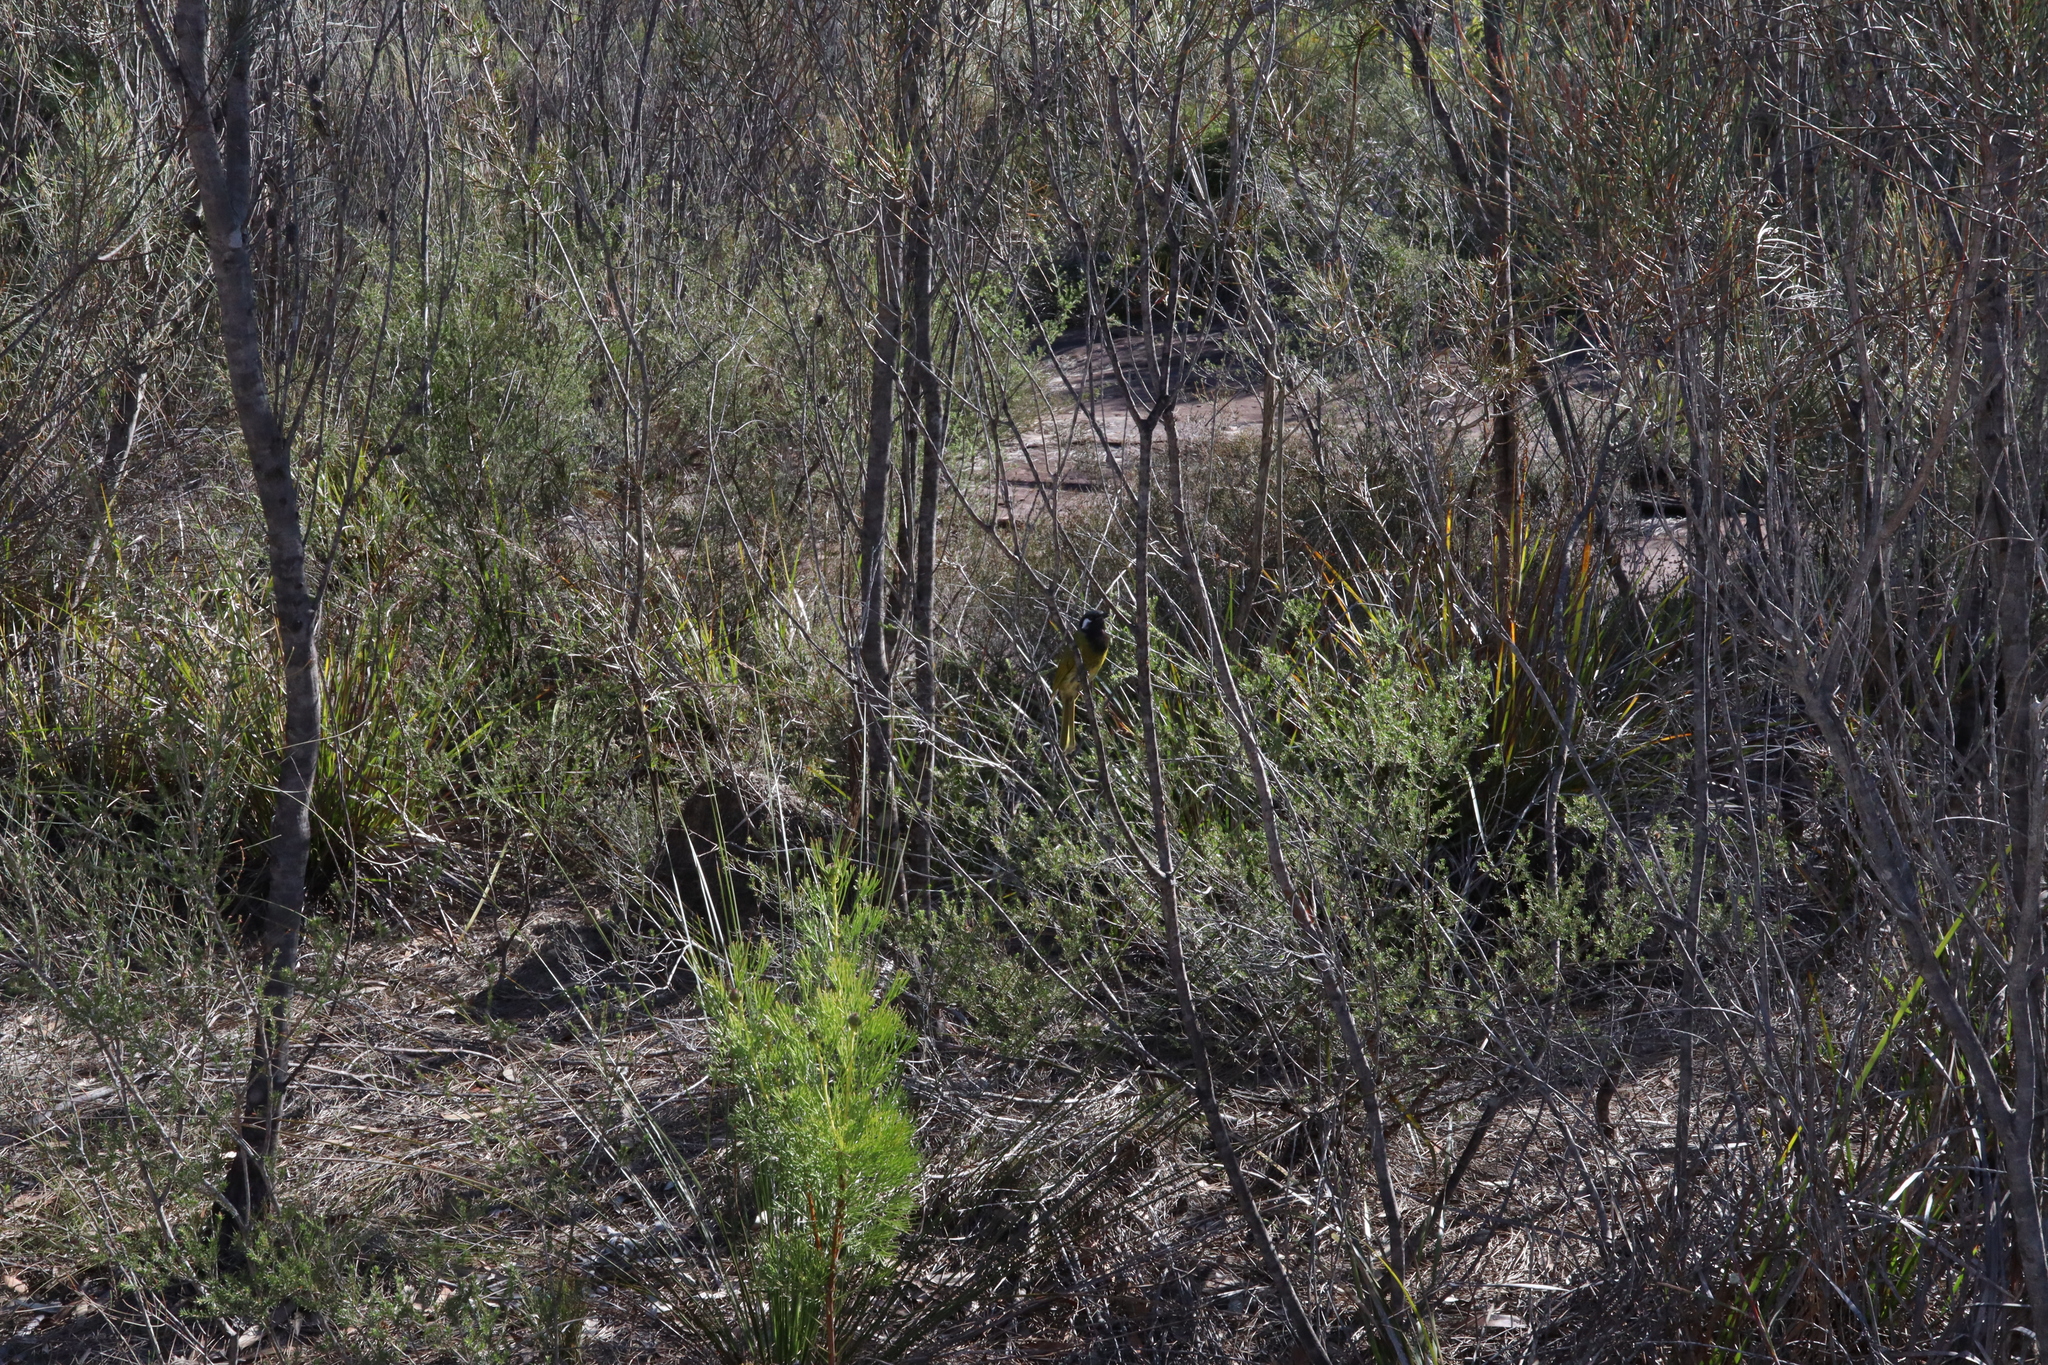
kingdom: Animalia
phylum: Chordata
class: Aves
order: Passeriformes
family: Meliphagidae
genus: Nesoptilotis
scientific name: Nesoptilotis leucotis
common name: White-eared honeyeater
